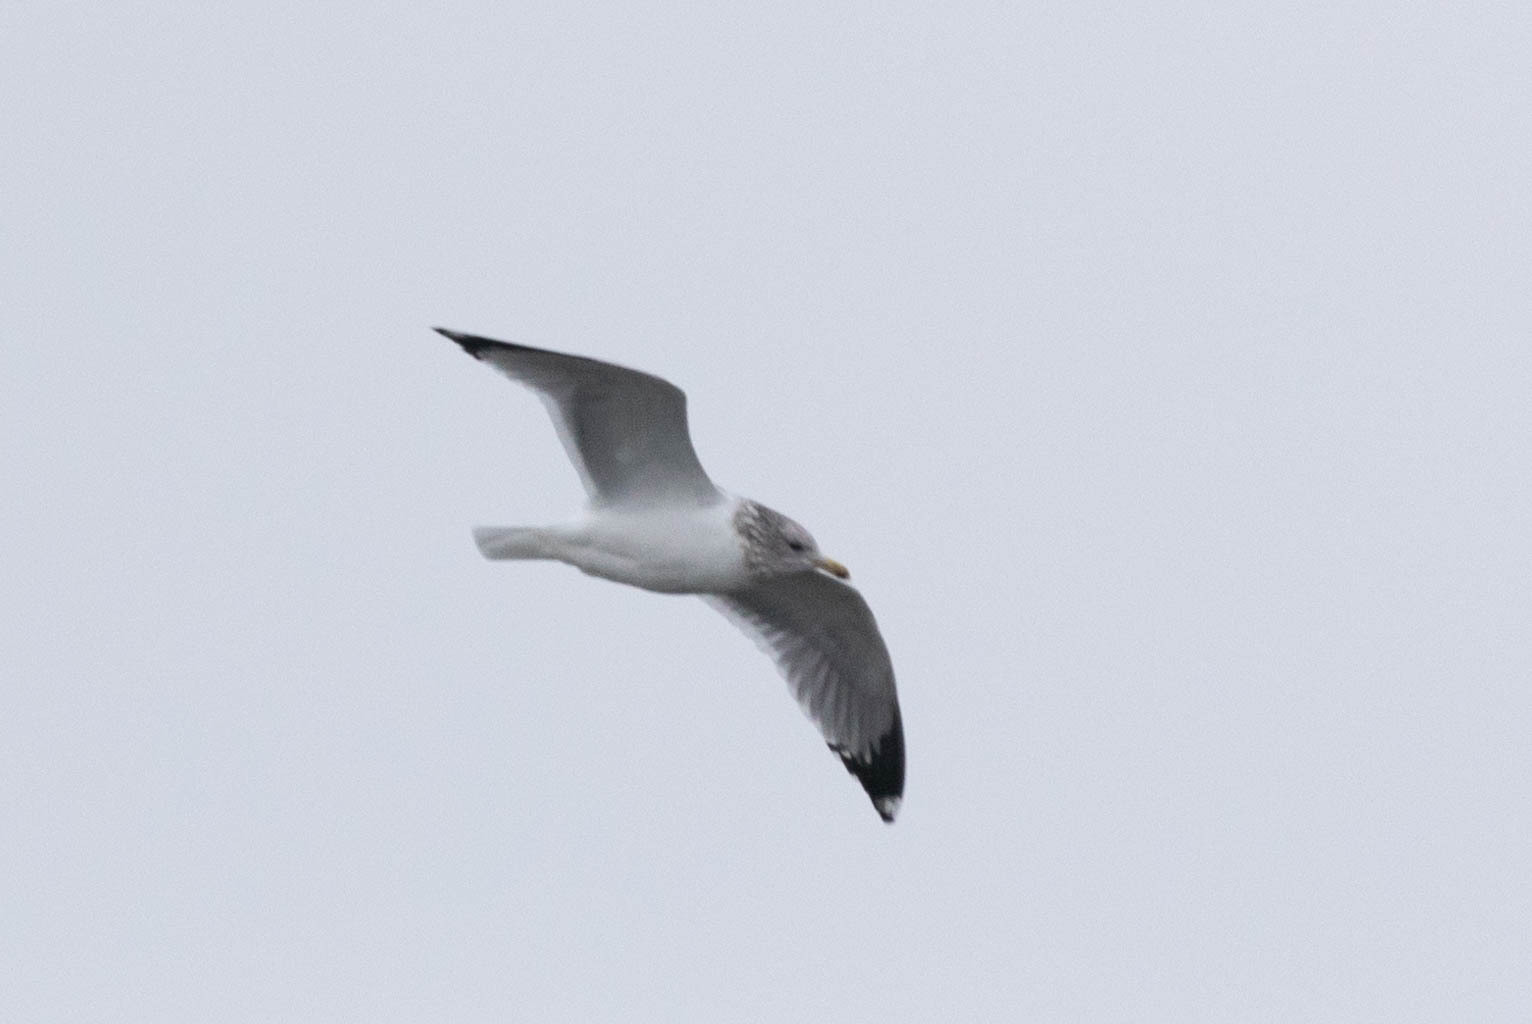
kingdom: Animalia
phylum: Chordata
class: Aves
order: Charadriiformes
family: Laridae
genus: Larus
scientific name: Larus californicus
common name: California gull
